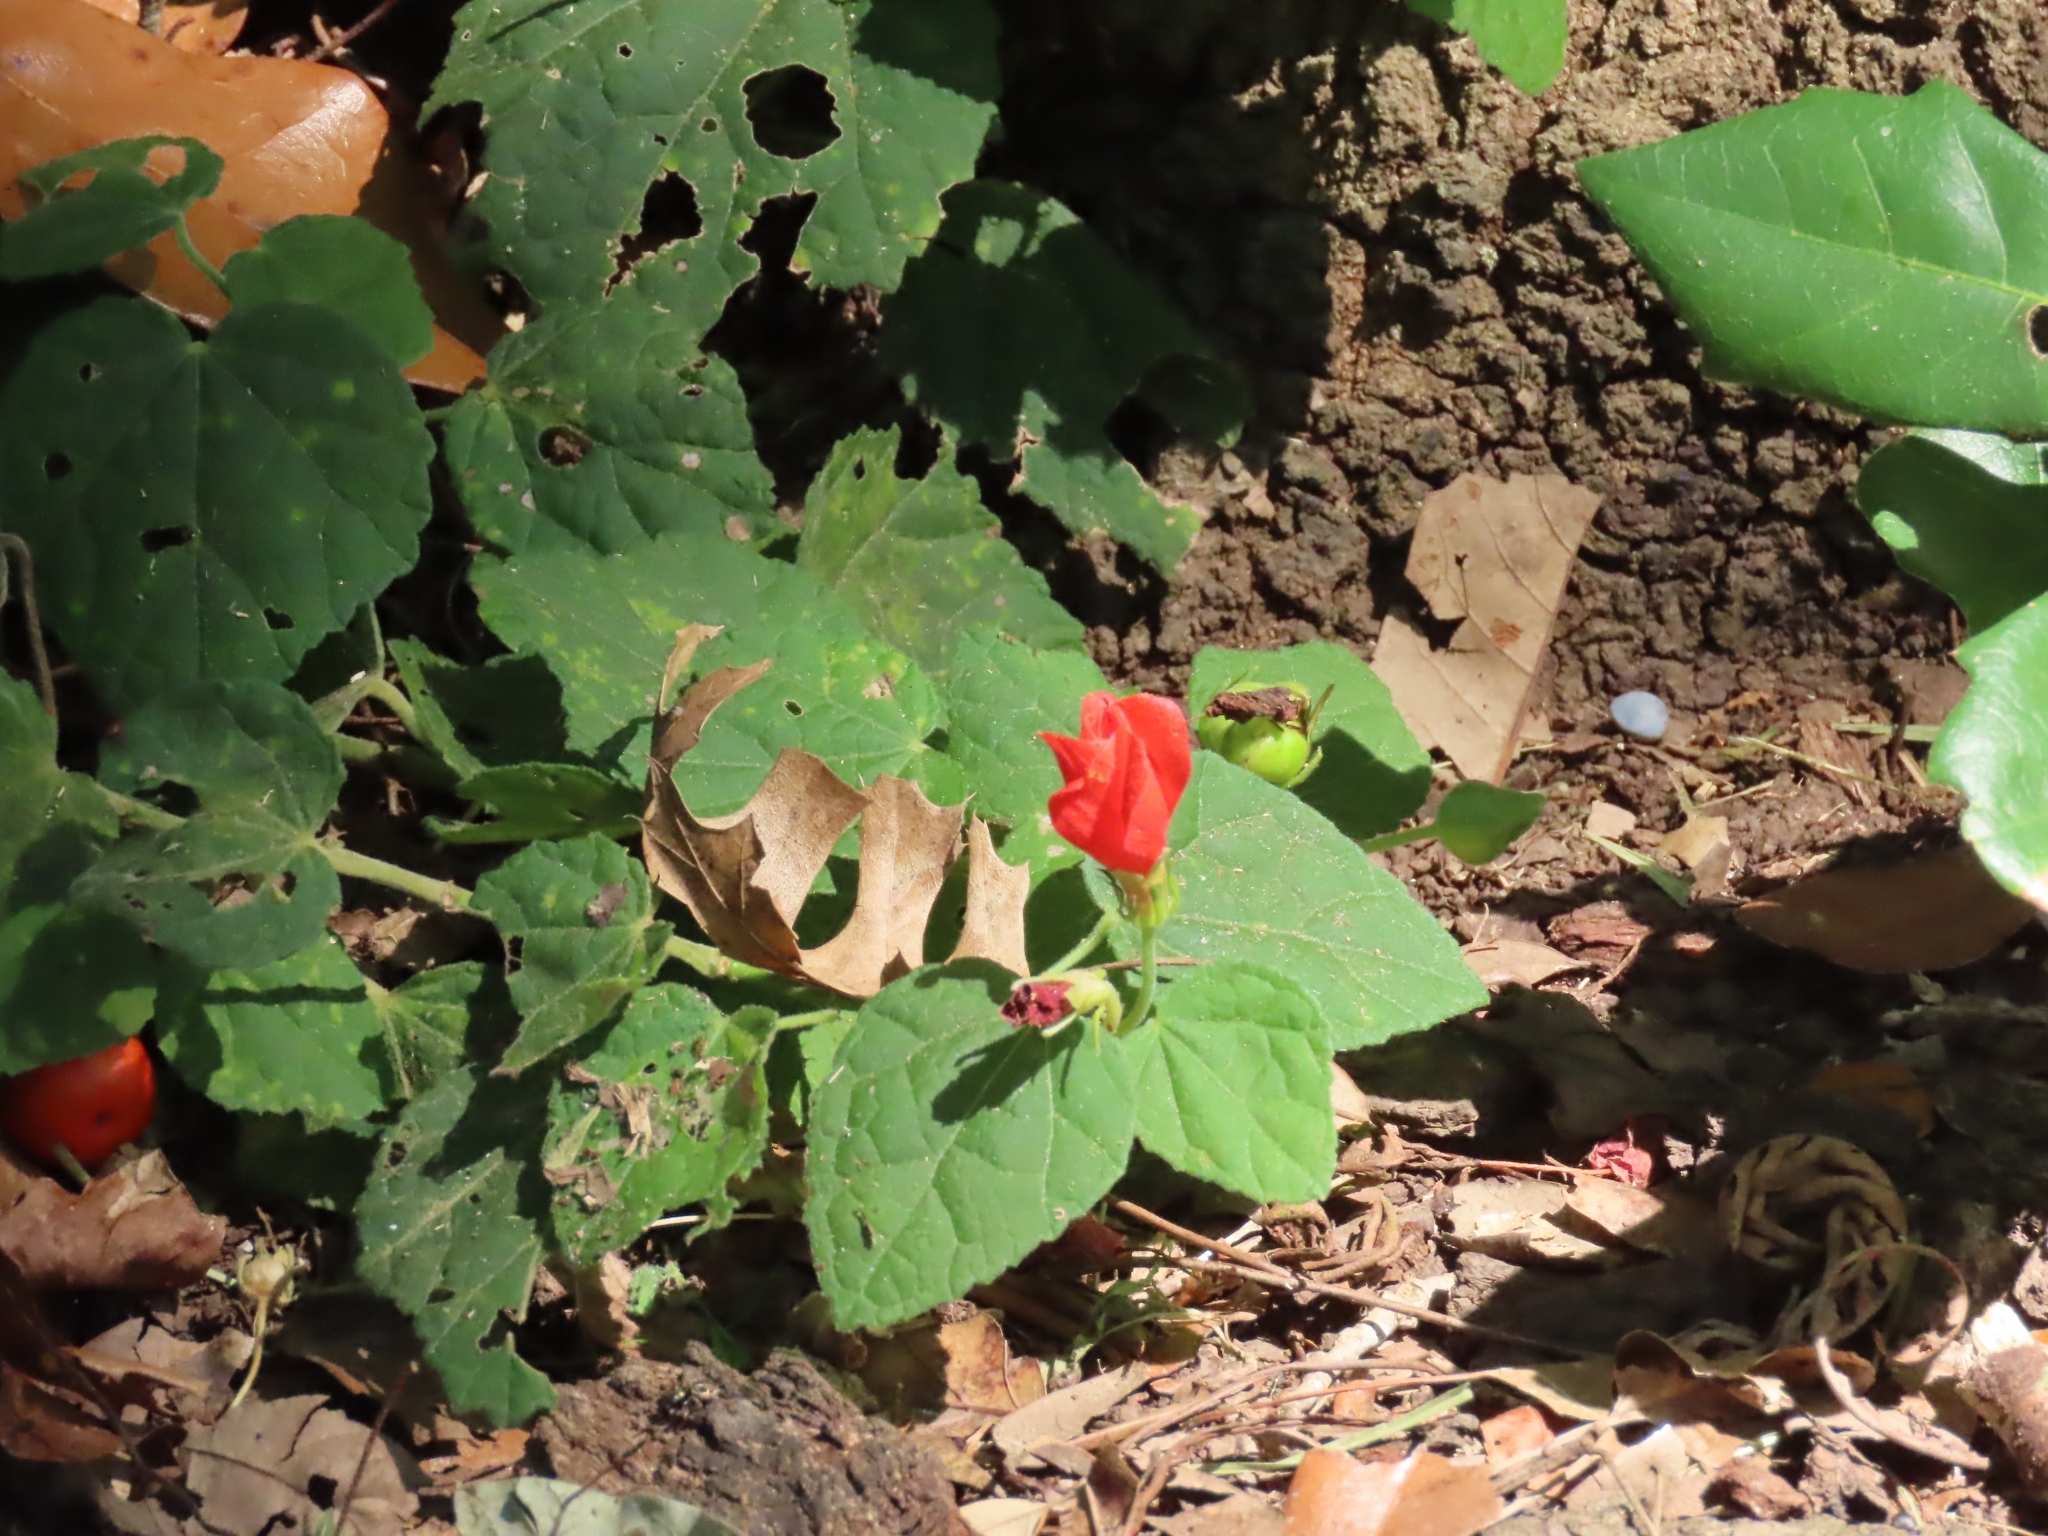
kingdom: Plantae
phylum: Tracheophyta
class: Magnoliopsida
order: Malvales
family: Malvaceae
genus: Malvaviscus
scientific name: Malvaviscus arboreus
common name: Wax mallow
